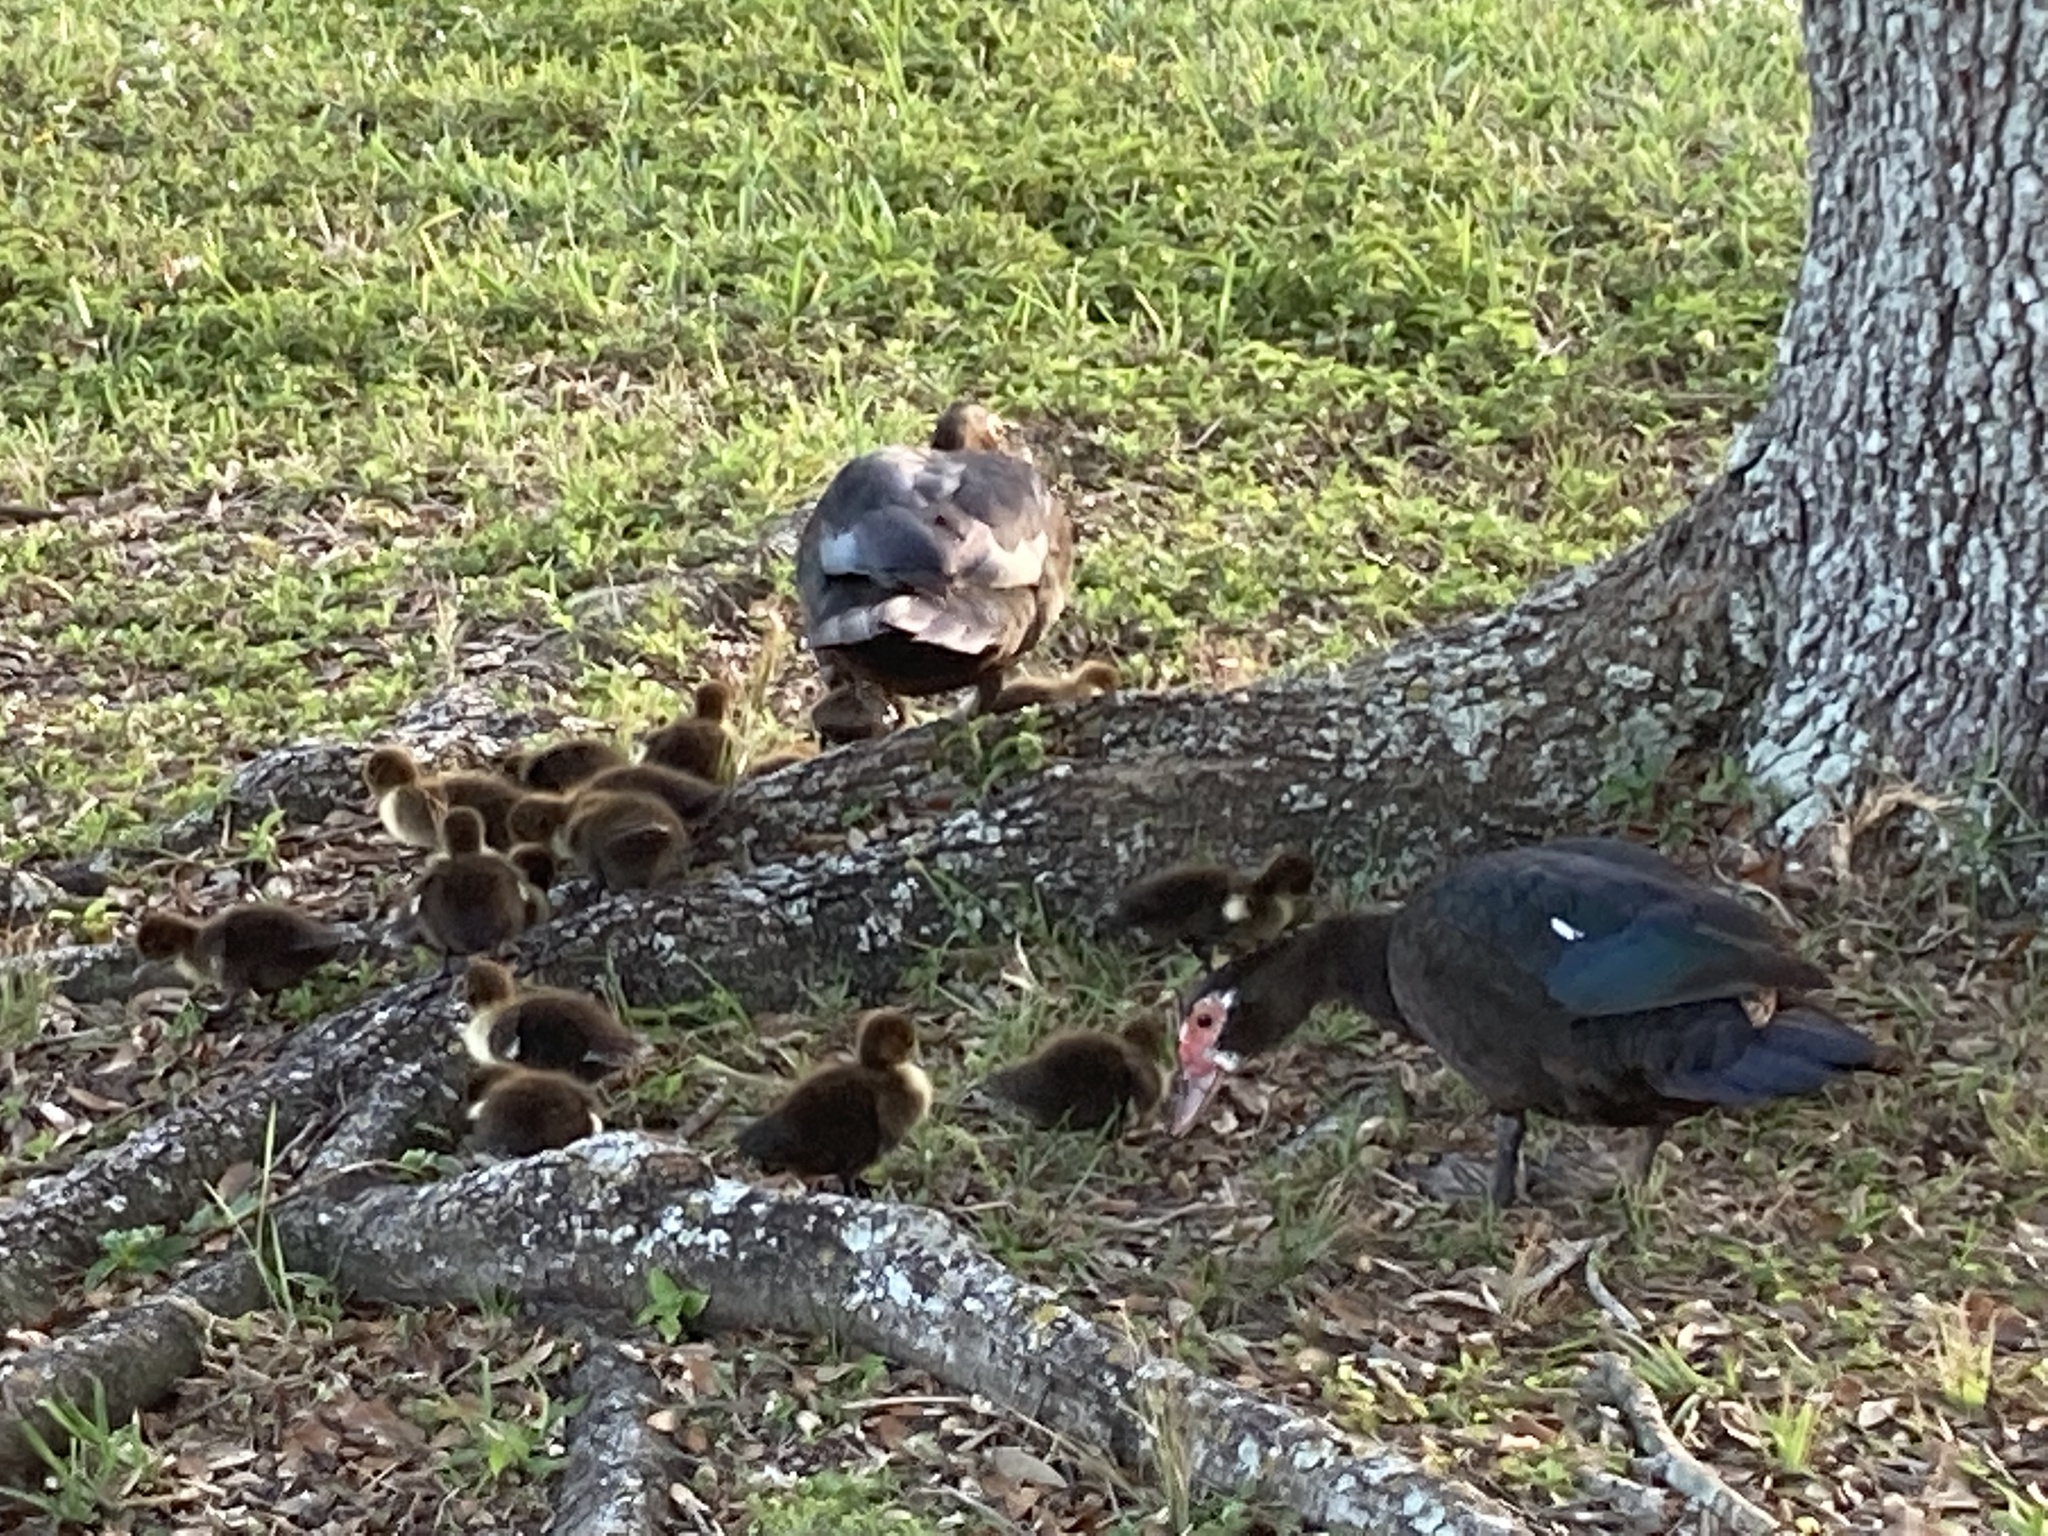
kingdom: Animalia
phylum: Chordata
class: Aves
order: Anseriformes
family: Anatidae
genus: Cairina
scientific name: Cairina moschata
